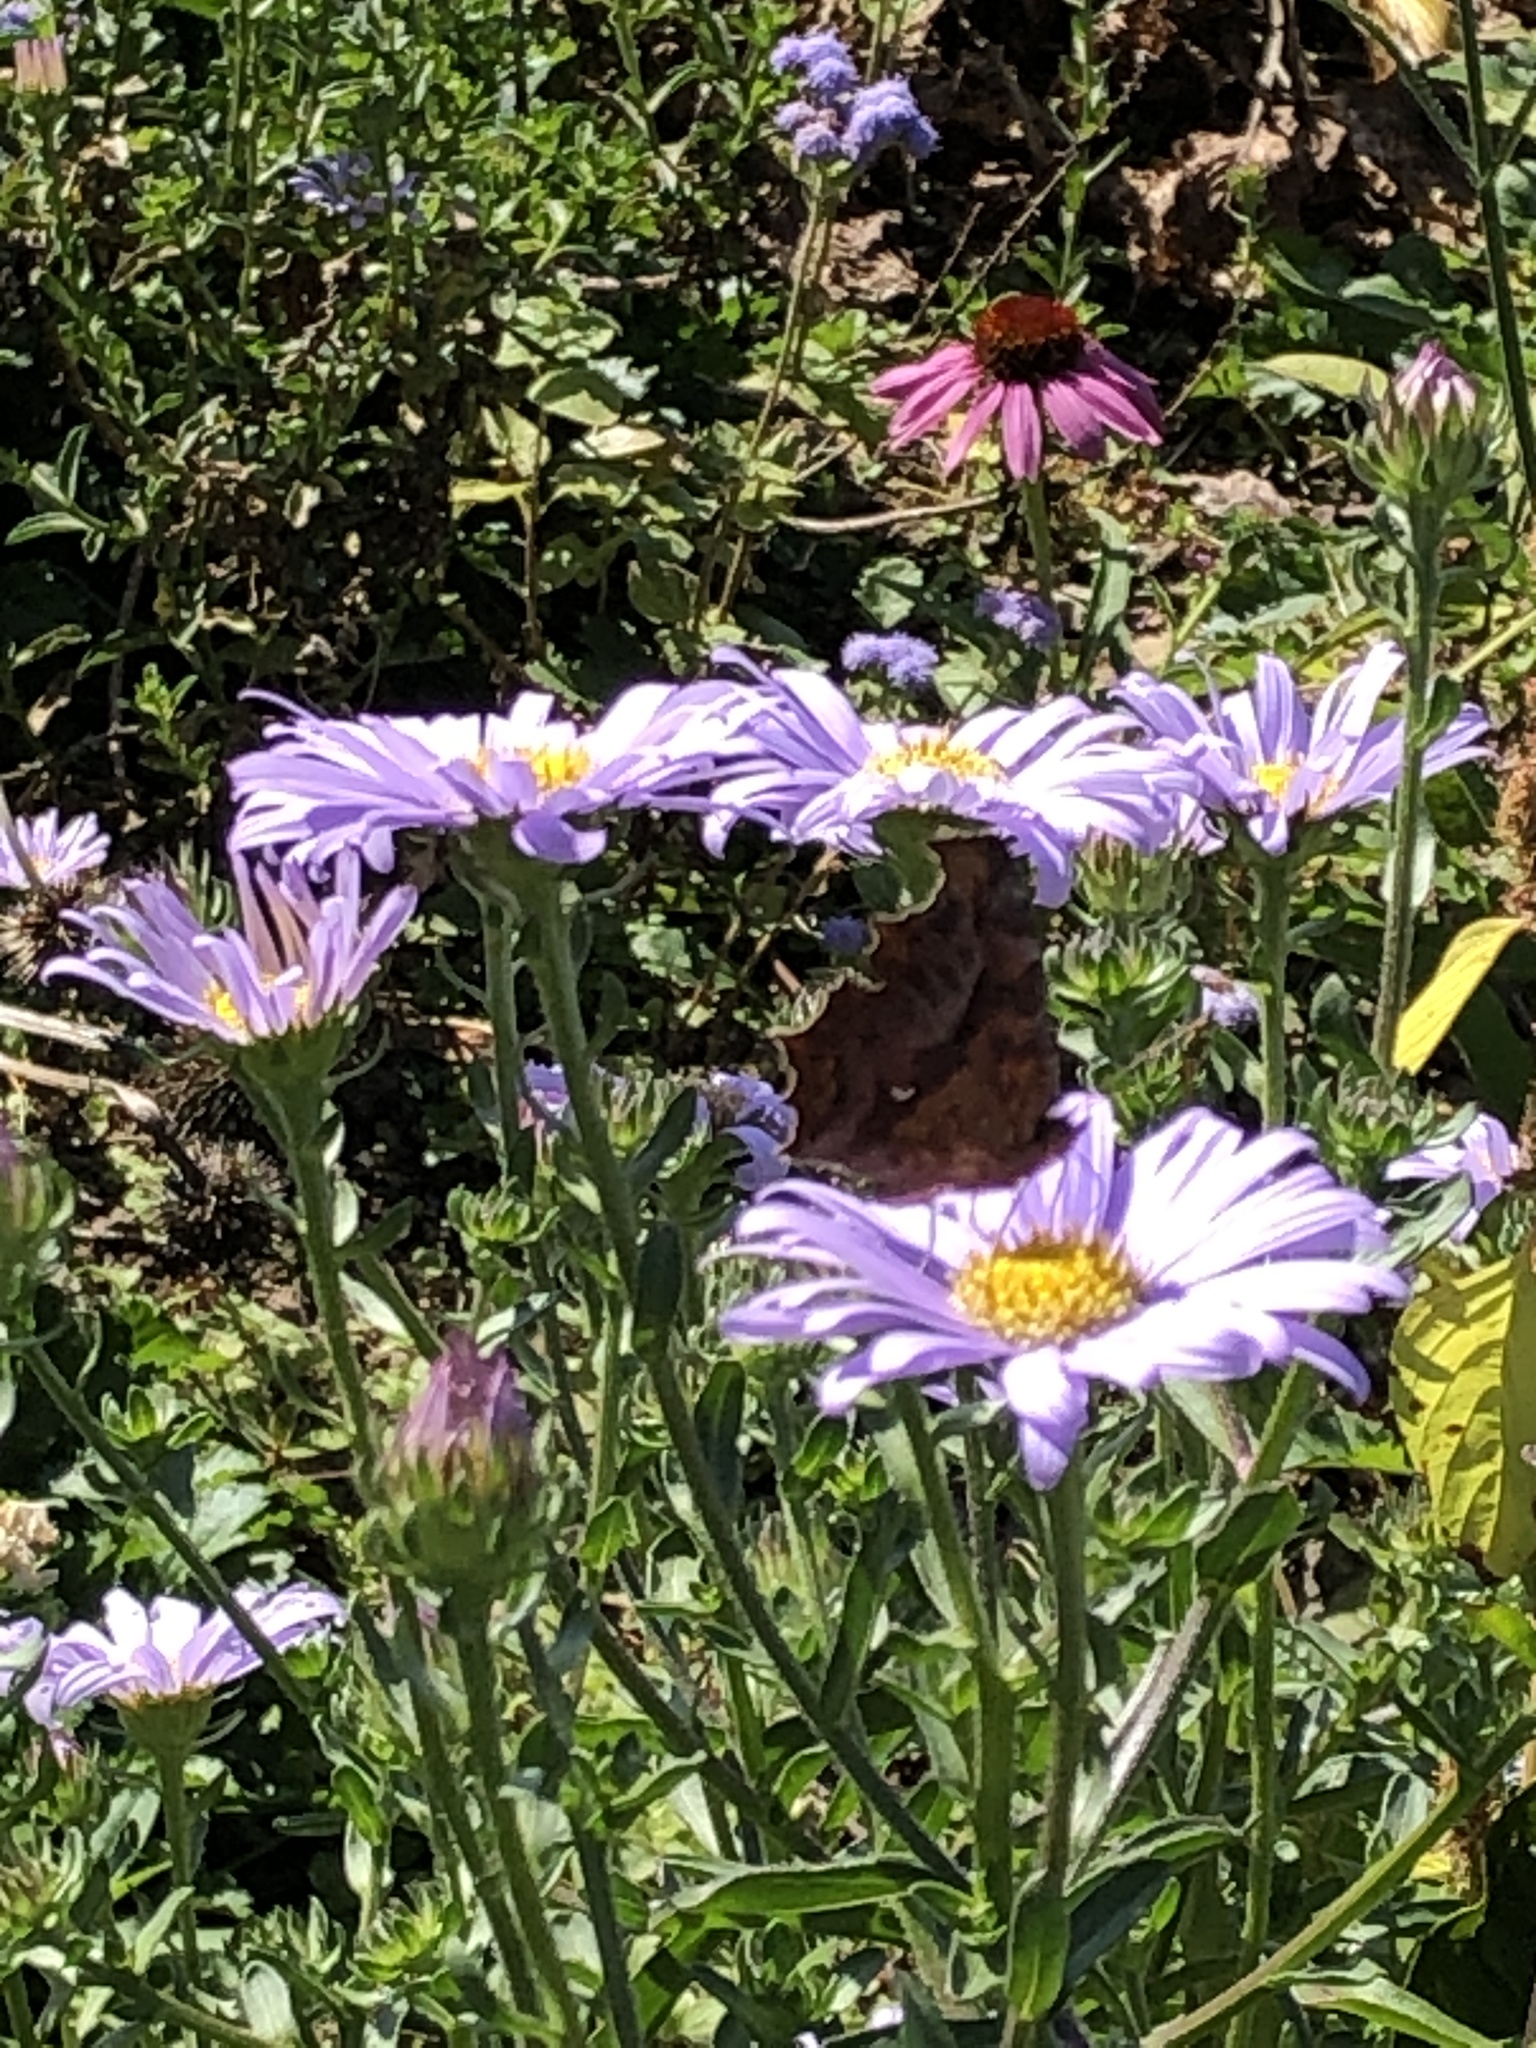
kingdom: Animalia
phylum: Arthropoda
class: Insecta
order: Lepidoptera
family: Nymphalidae
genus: Polygonia
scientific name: Polygonia c-aureum
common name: Asian comma
